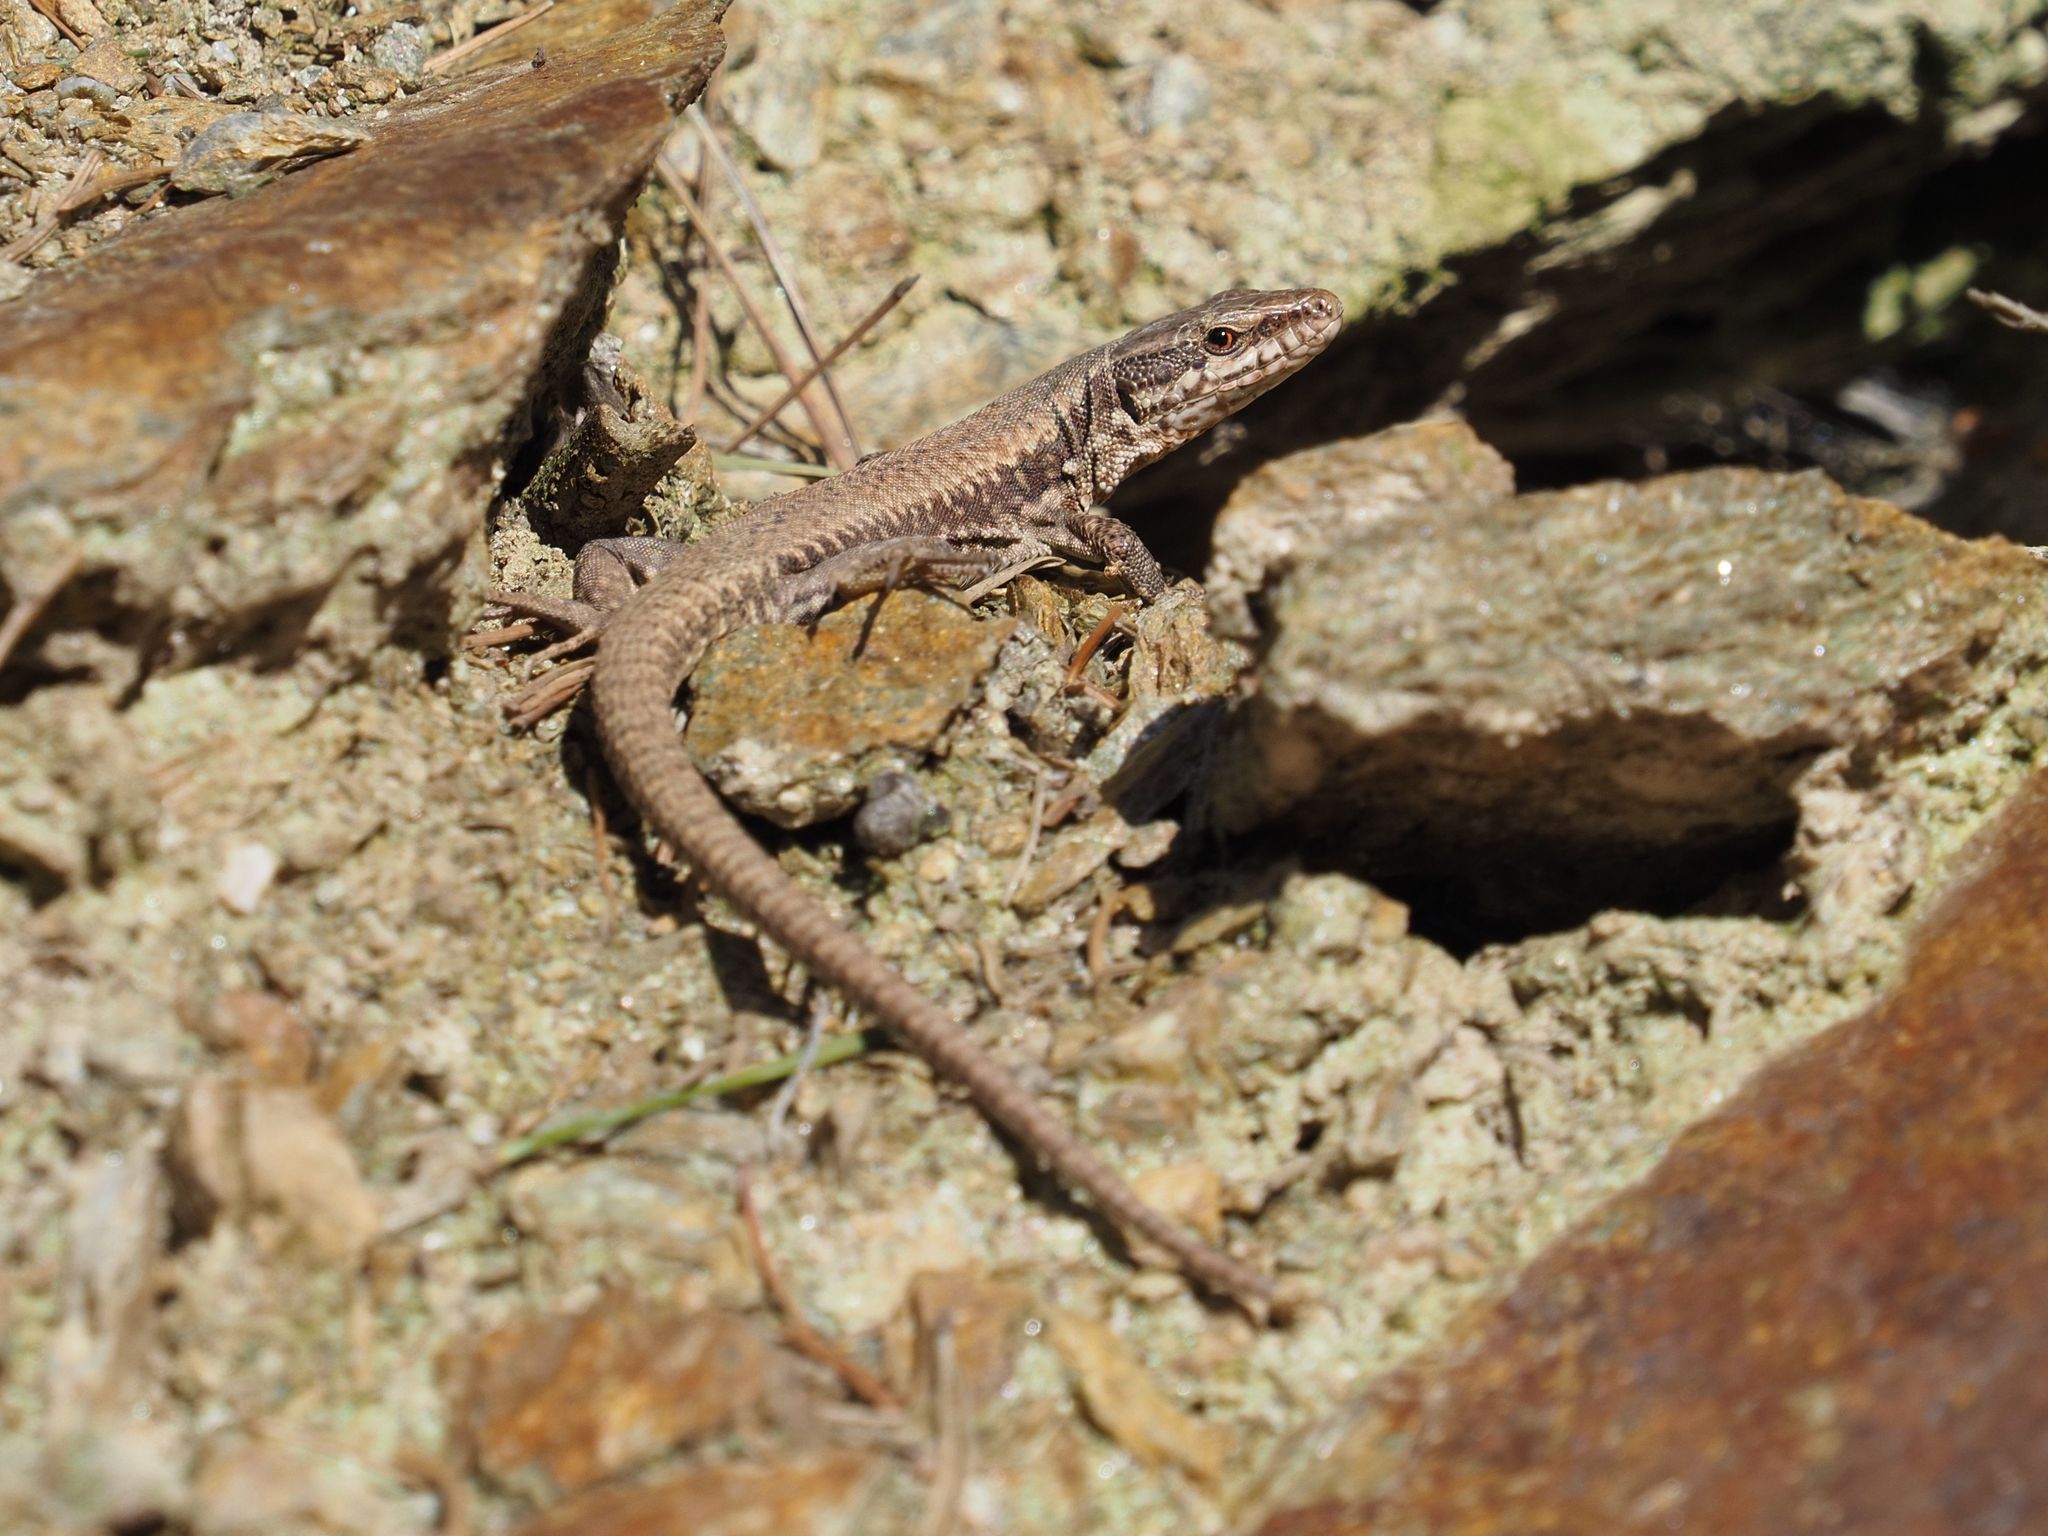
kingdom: Animalia
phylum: Chordata
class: Squamata
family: Lacertidae
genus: Podarcis
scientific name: Podarcis muralis
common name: Common wall lizard
